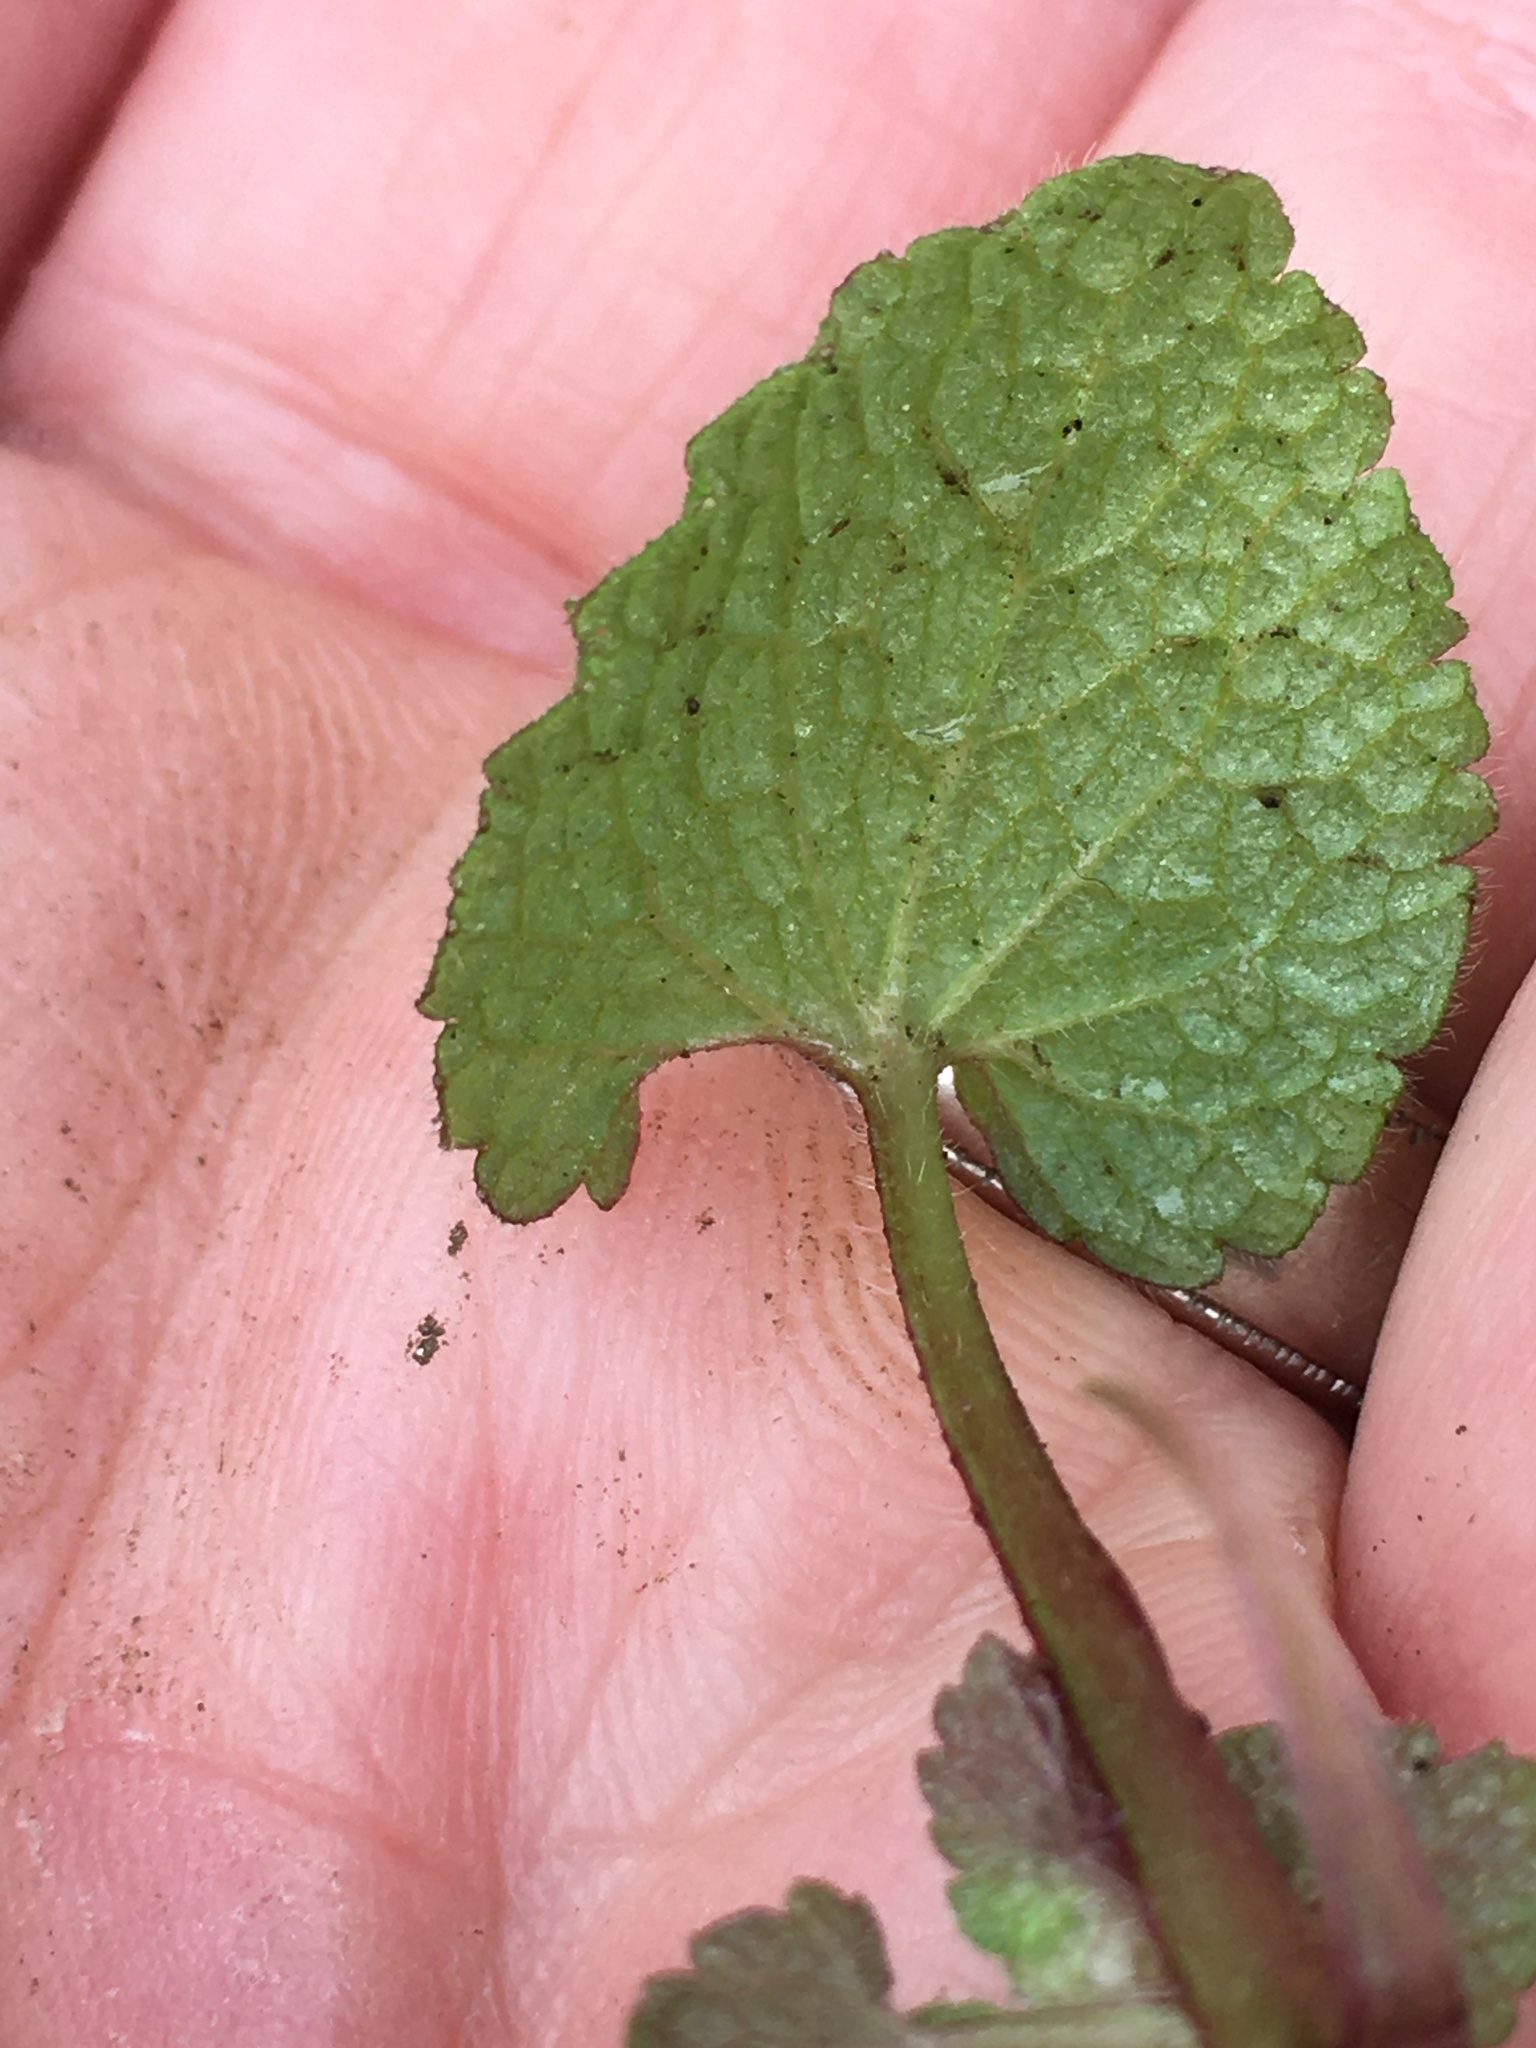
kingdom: Plantae
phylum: Tracheophyta
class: Magnoliopsida
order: Lamiales
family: Lamiaceae
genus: Lamium
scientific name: Lamium purpureum
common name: Red dead-nettle
